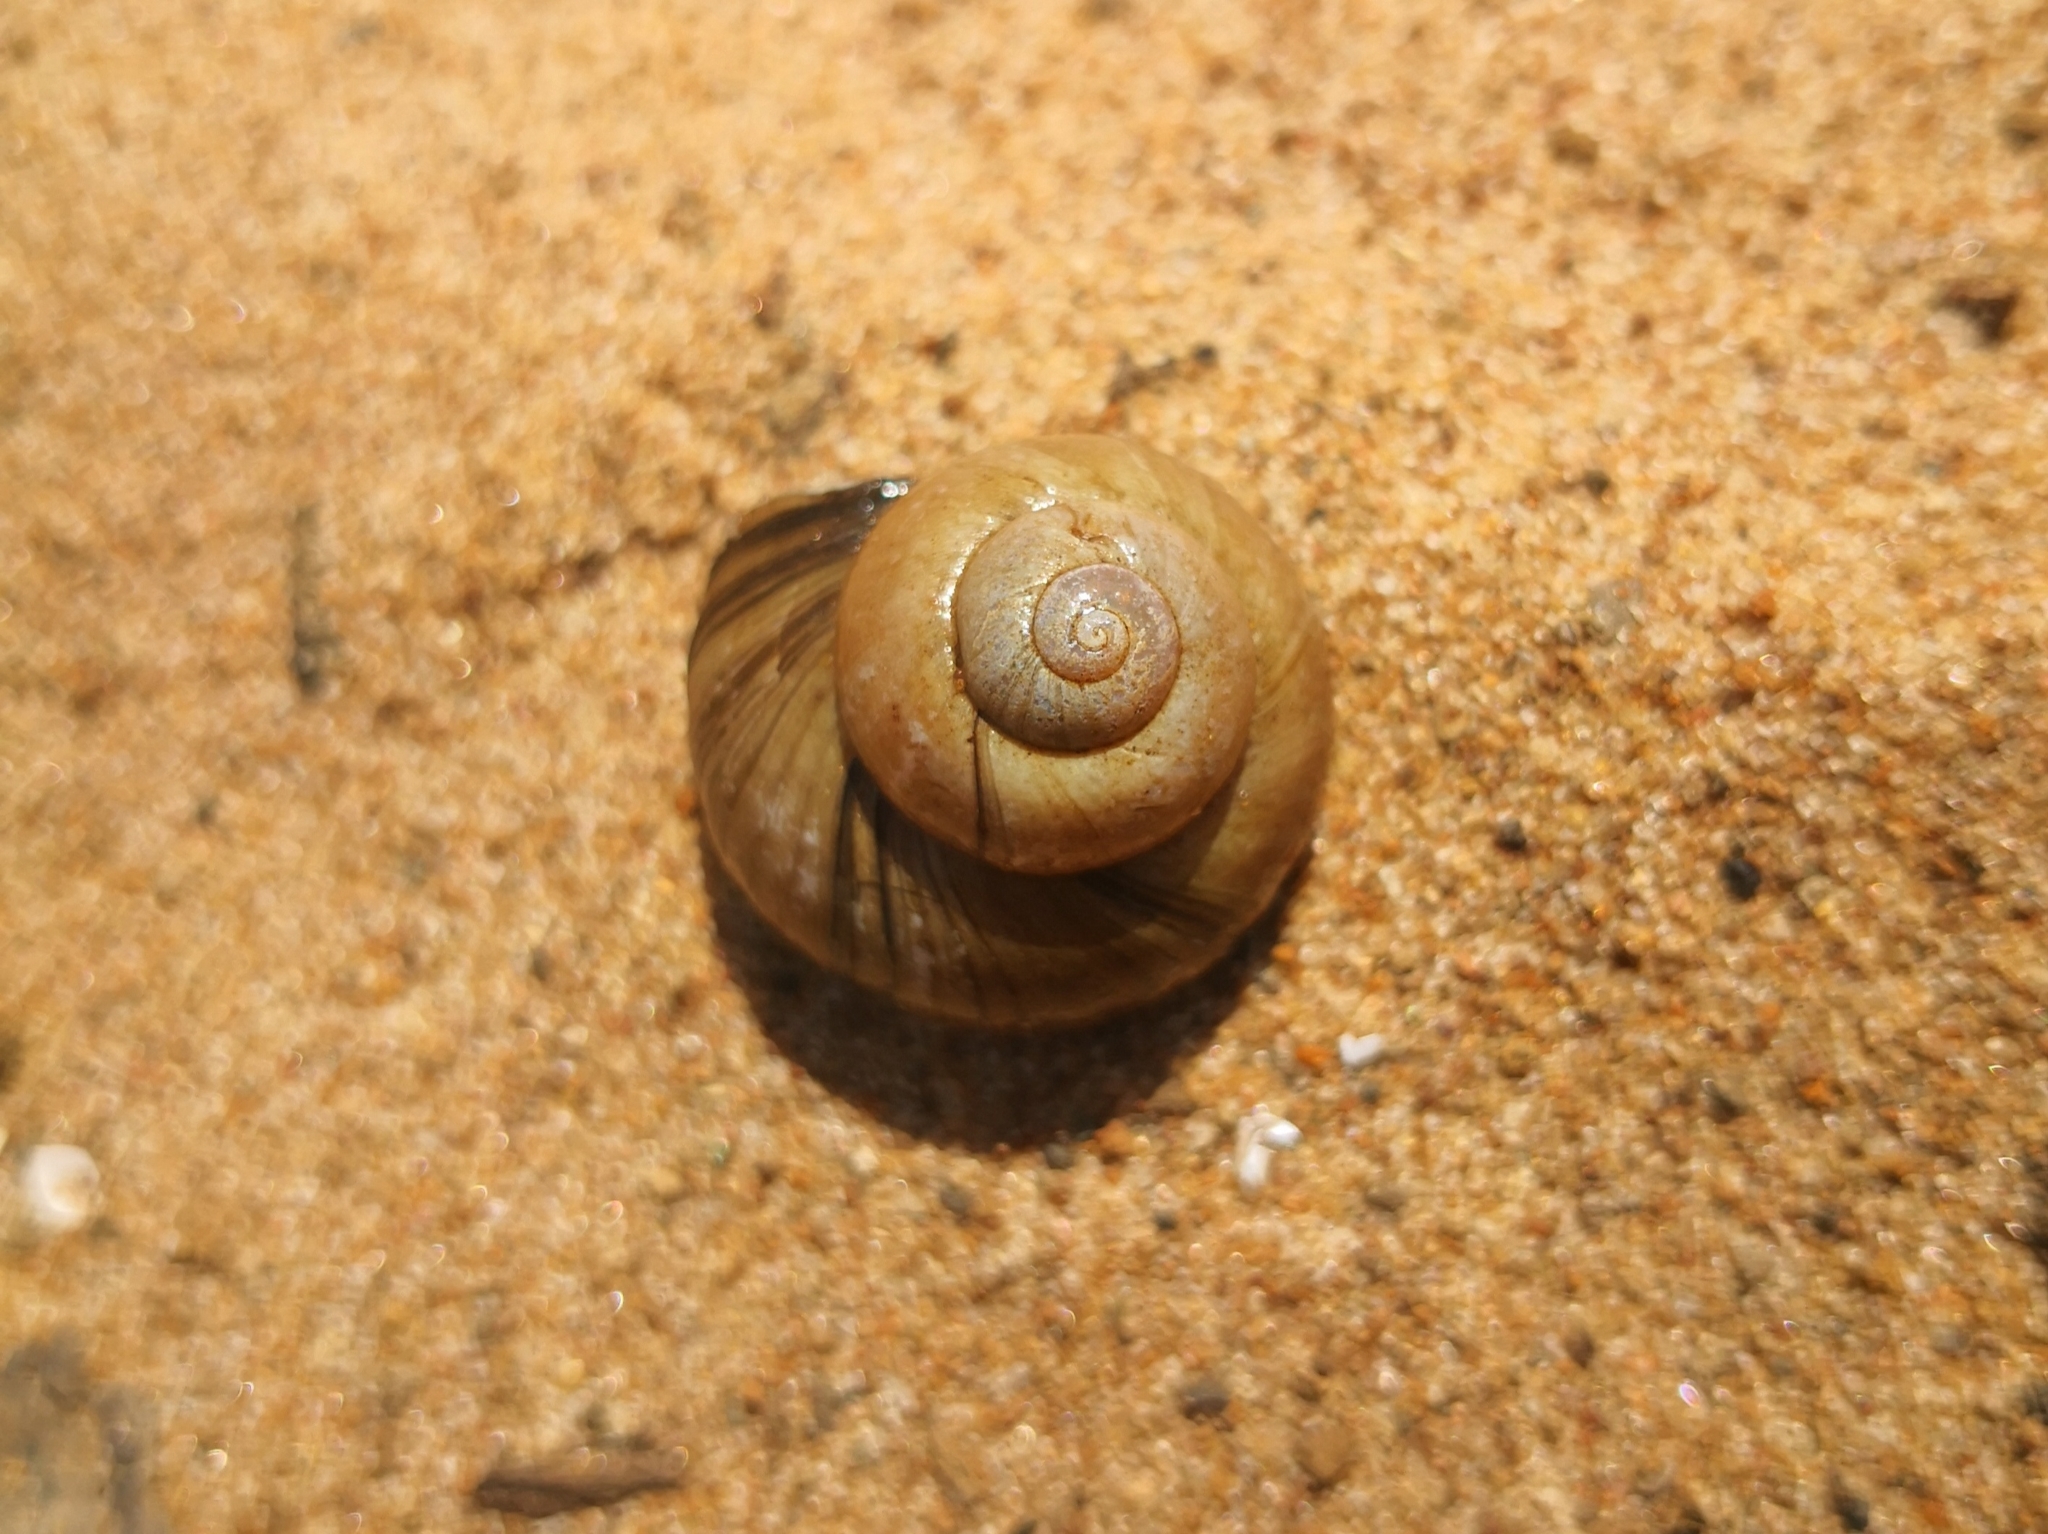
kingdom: Animalia
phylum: Mollusca
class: Gastropoda
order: Architaenioglossa
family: Viviparidae
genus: Viviparus
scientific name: Viviparus viviparus
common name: River snail
